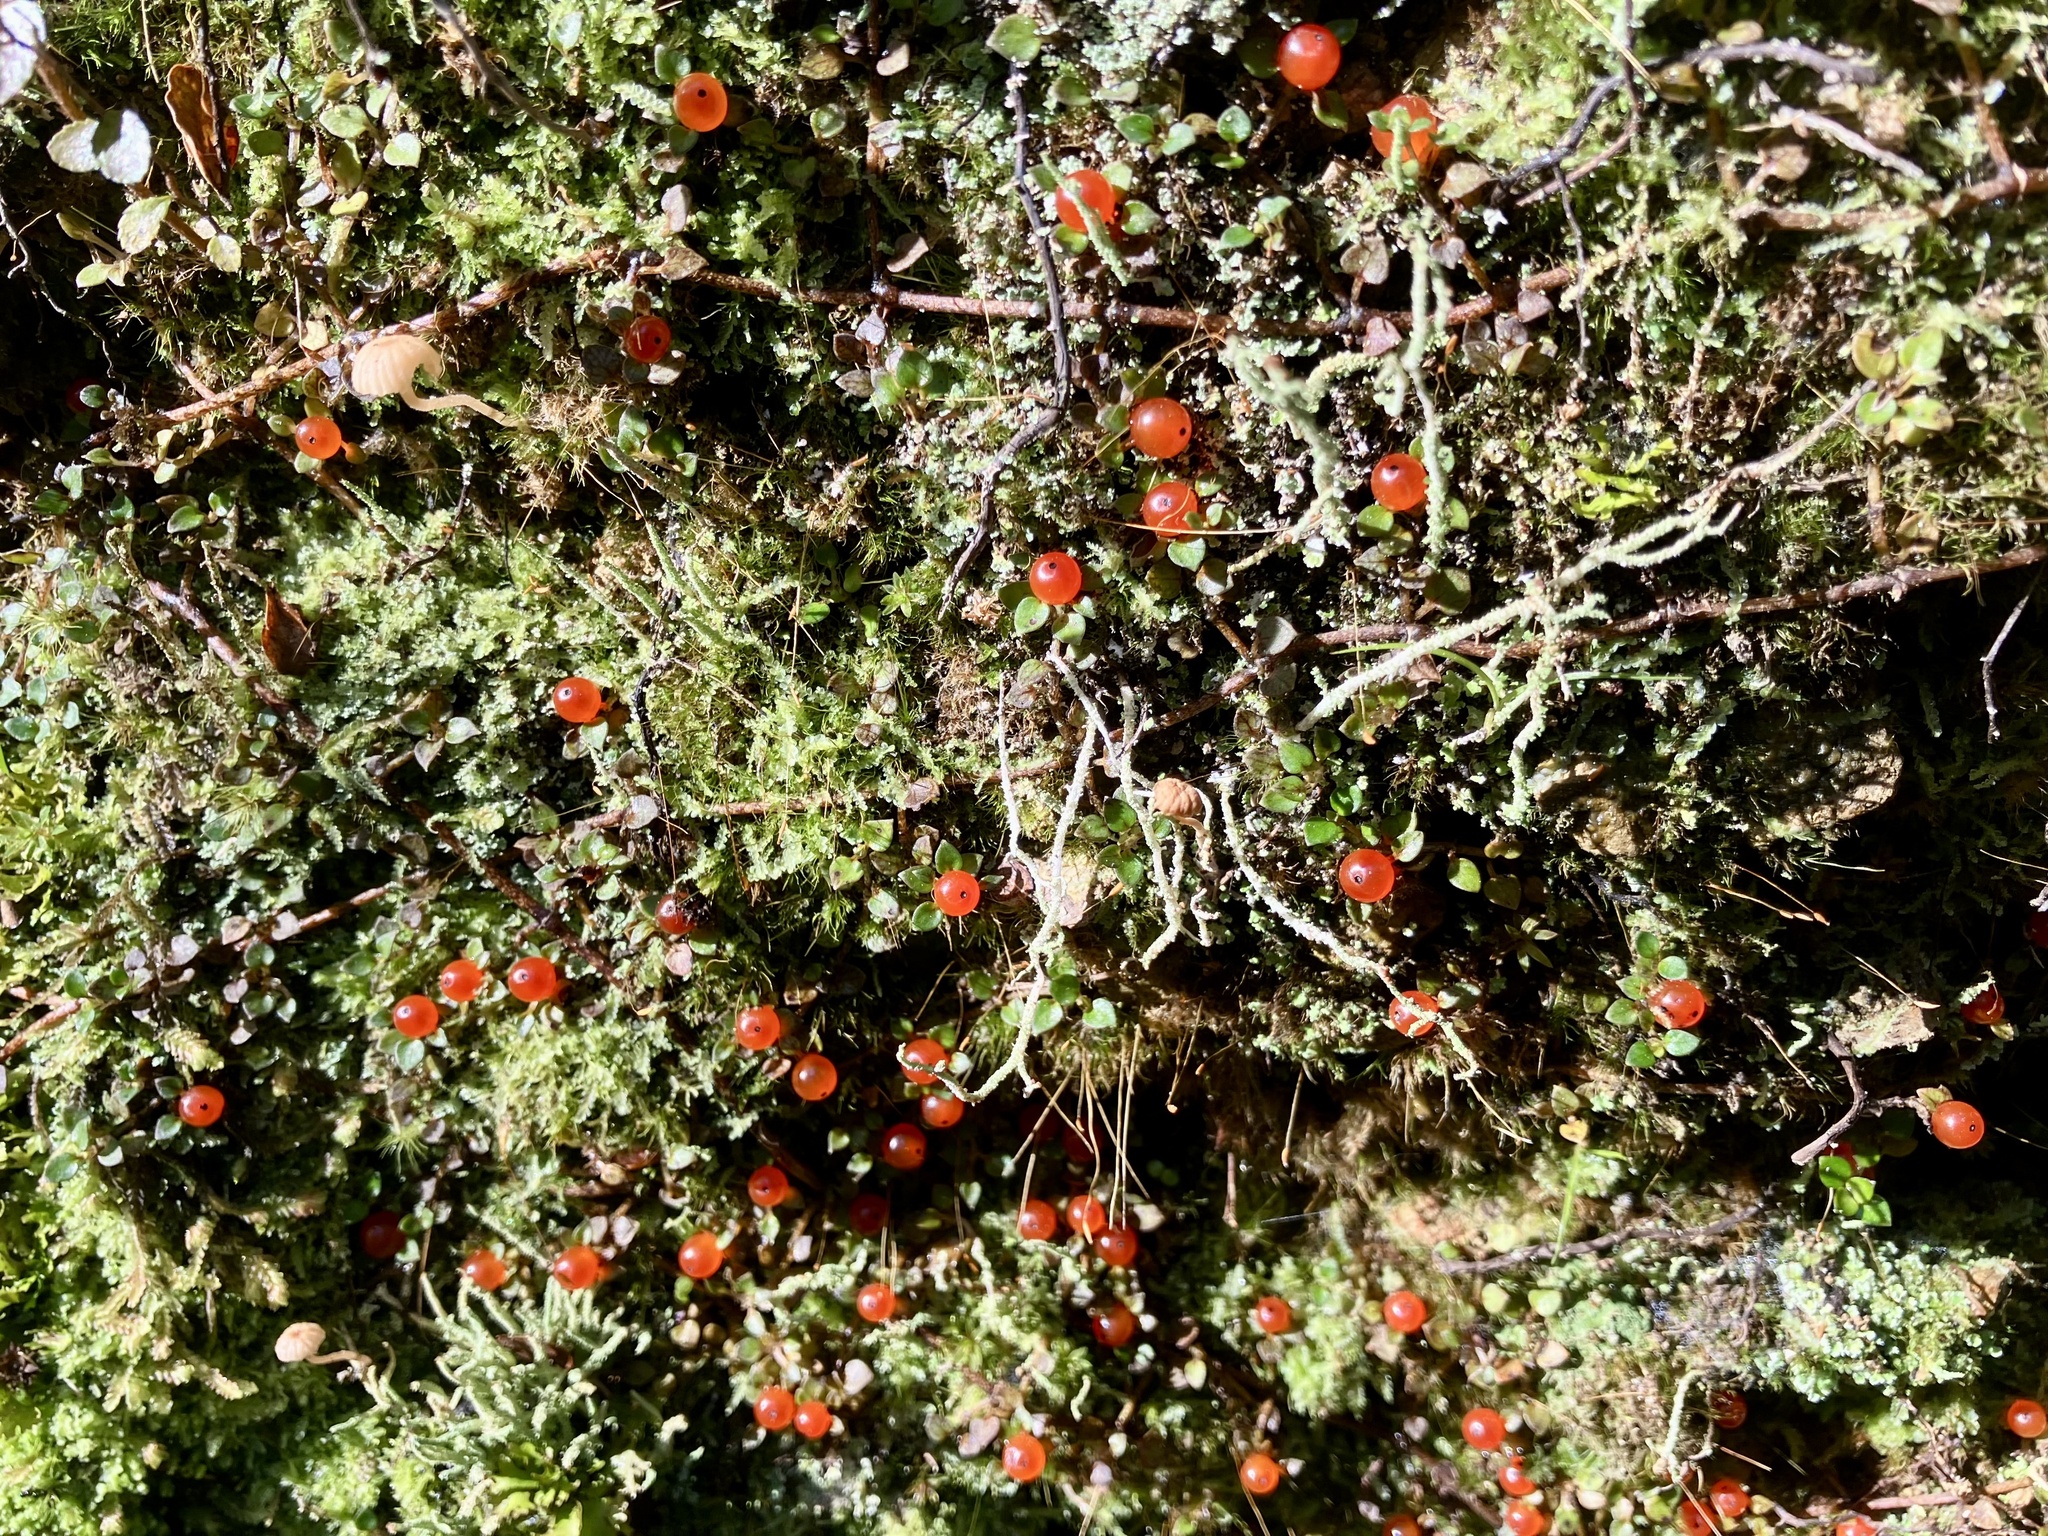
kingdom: Plantae
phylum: Tracheophyta
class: Magnoliopsida
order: Gentianales
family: Rubiaceae
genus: Nertera
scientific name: Nertera granadensis
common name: Beadplant
